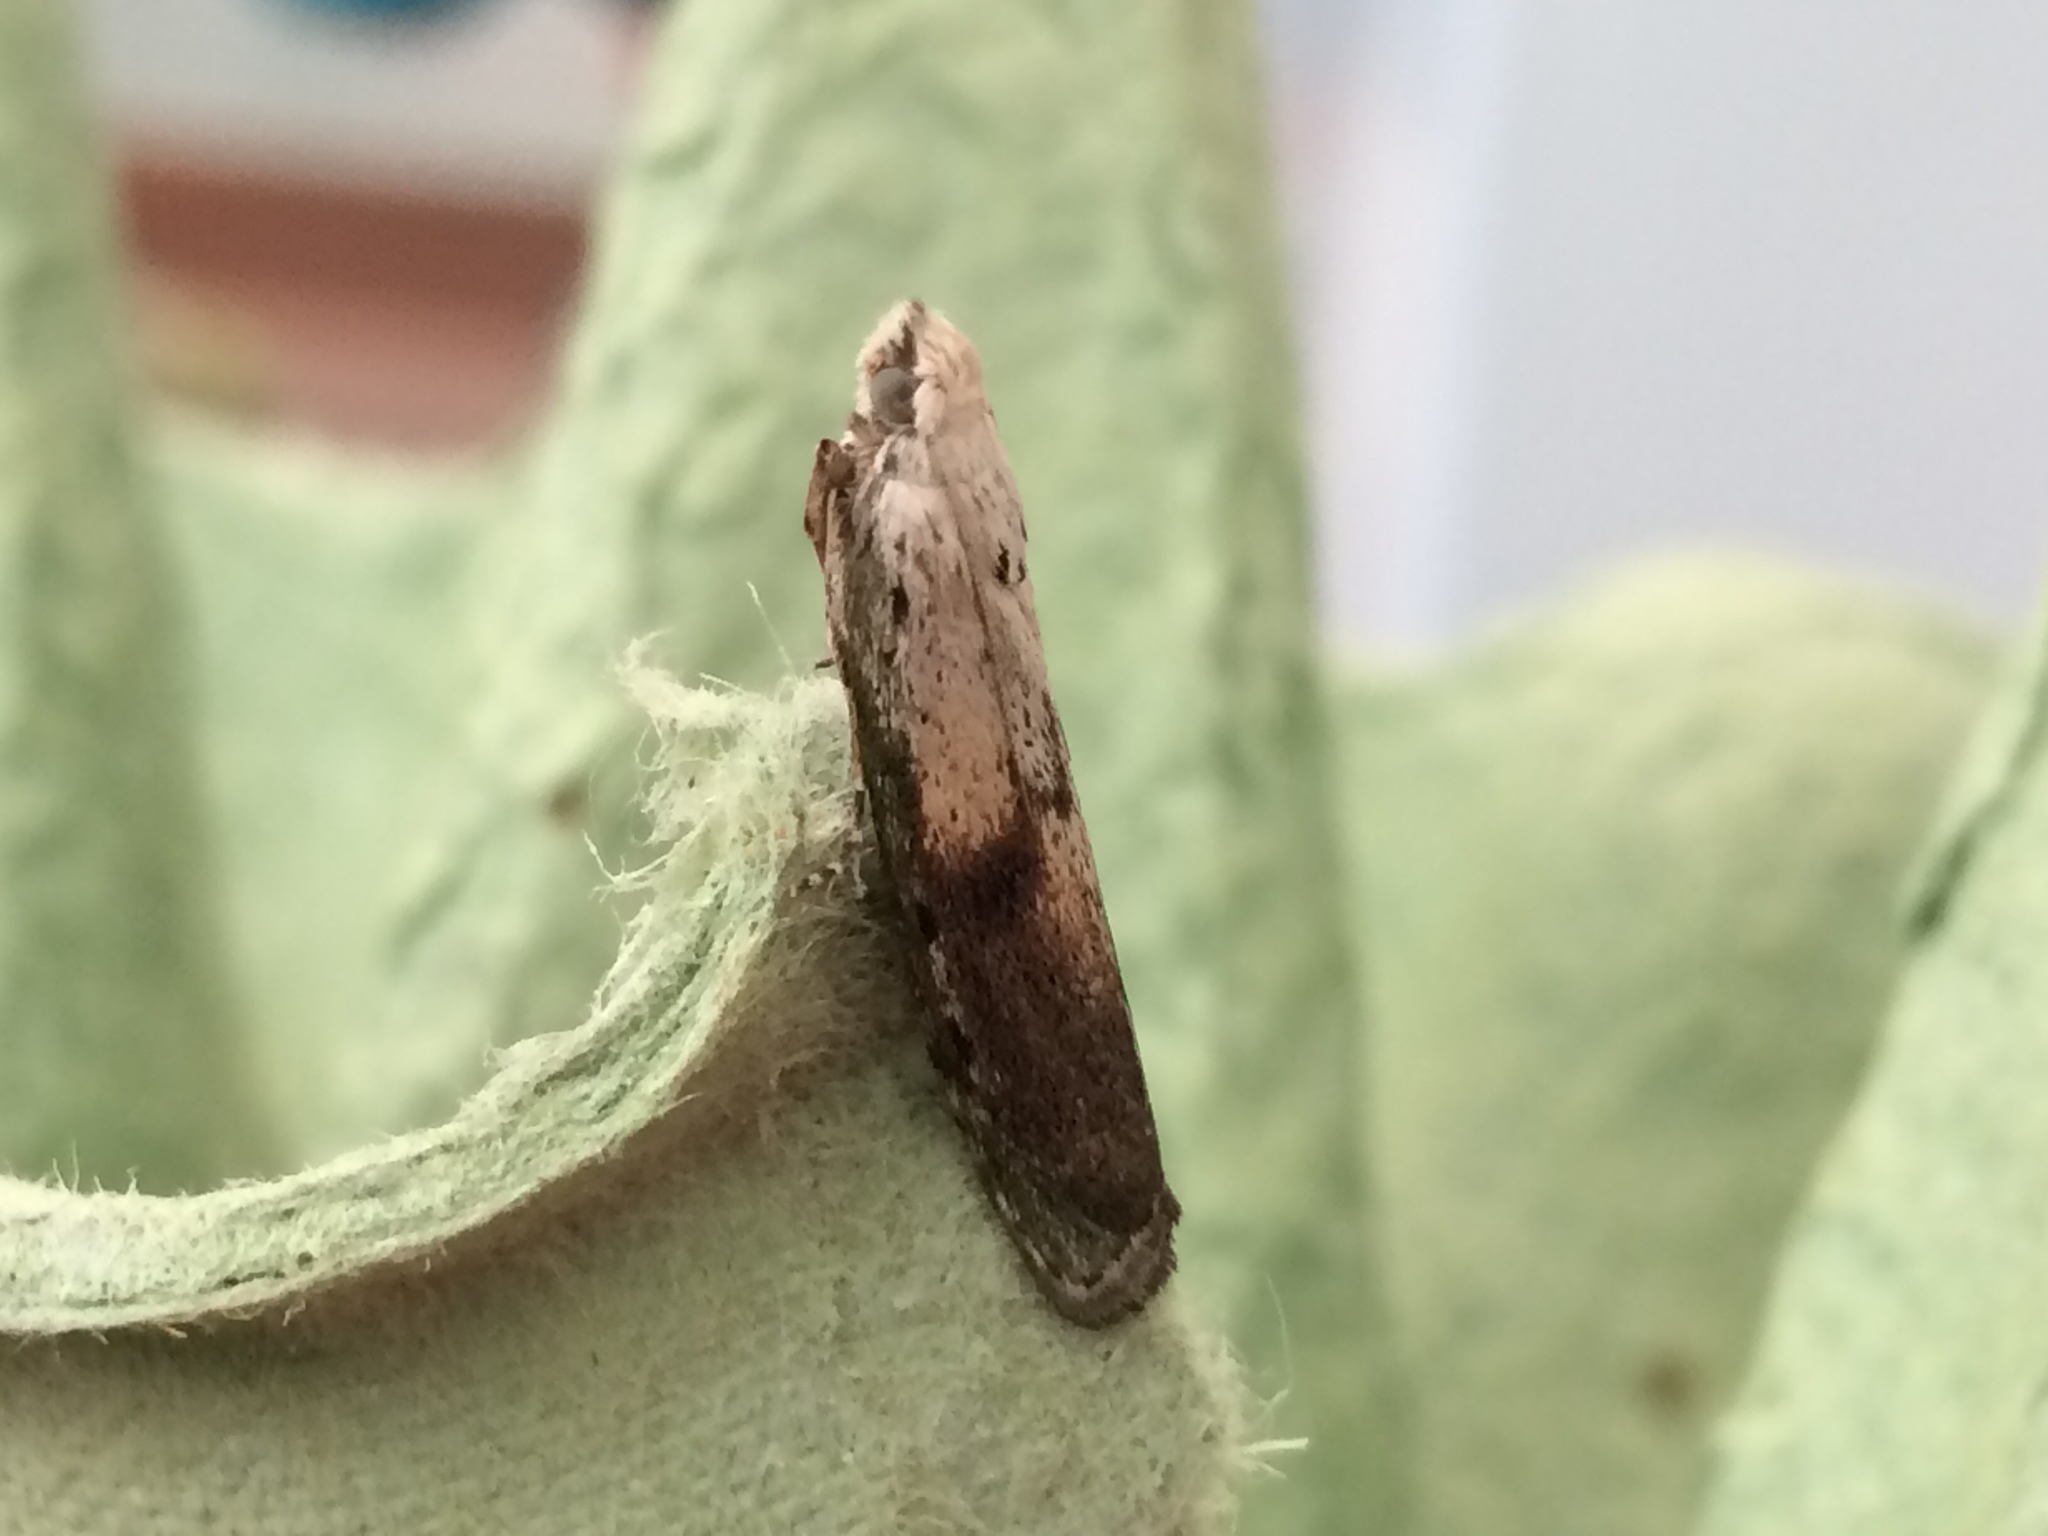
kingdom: Animalia
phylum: Arthropoda
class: Insecta
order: Lepidoptera
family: Pyralidae
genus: Aphomia
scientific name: Aphomia sociella
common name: Bee moth
